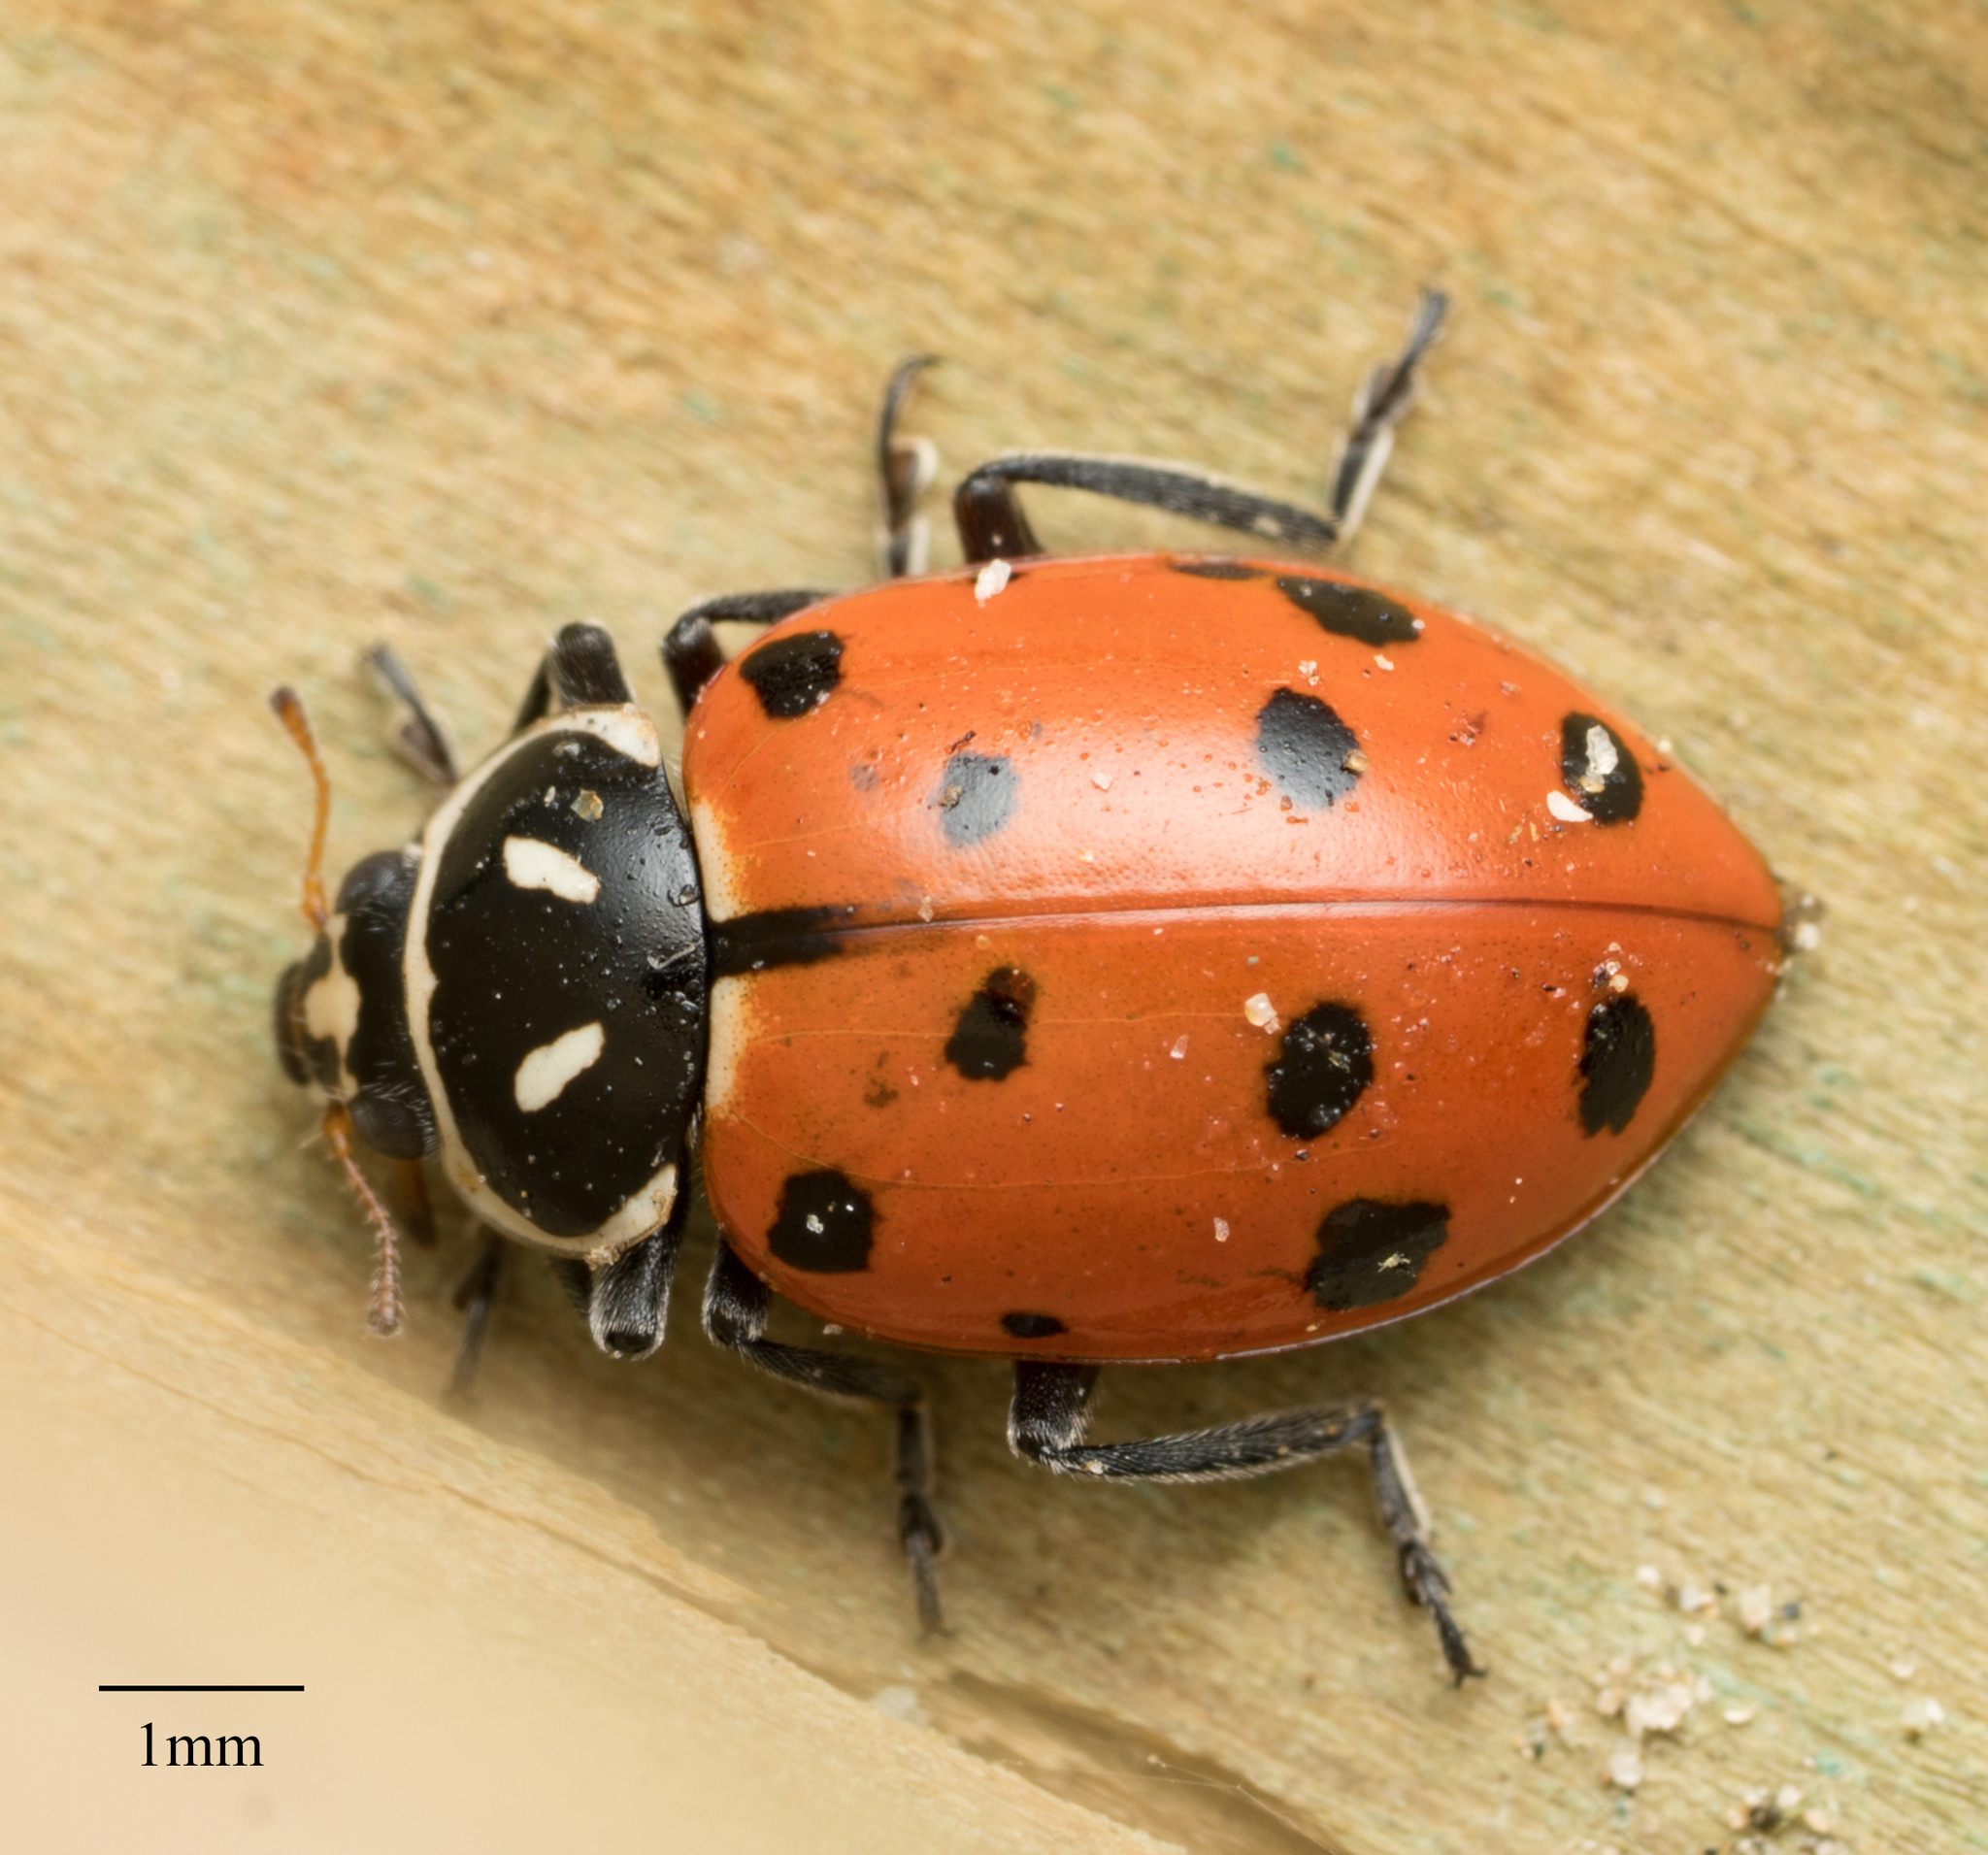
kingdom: Animalia
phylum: Arthropoda
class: Insecta
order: Coleoptera
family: Coccinellidae
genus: Hippodamia
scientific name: Hippodamia convergens
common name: Convergent lady beetle
